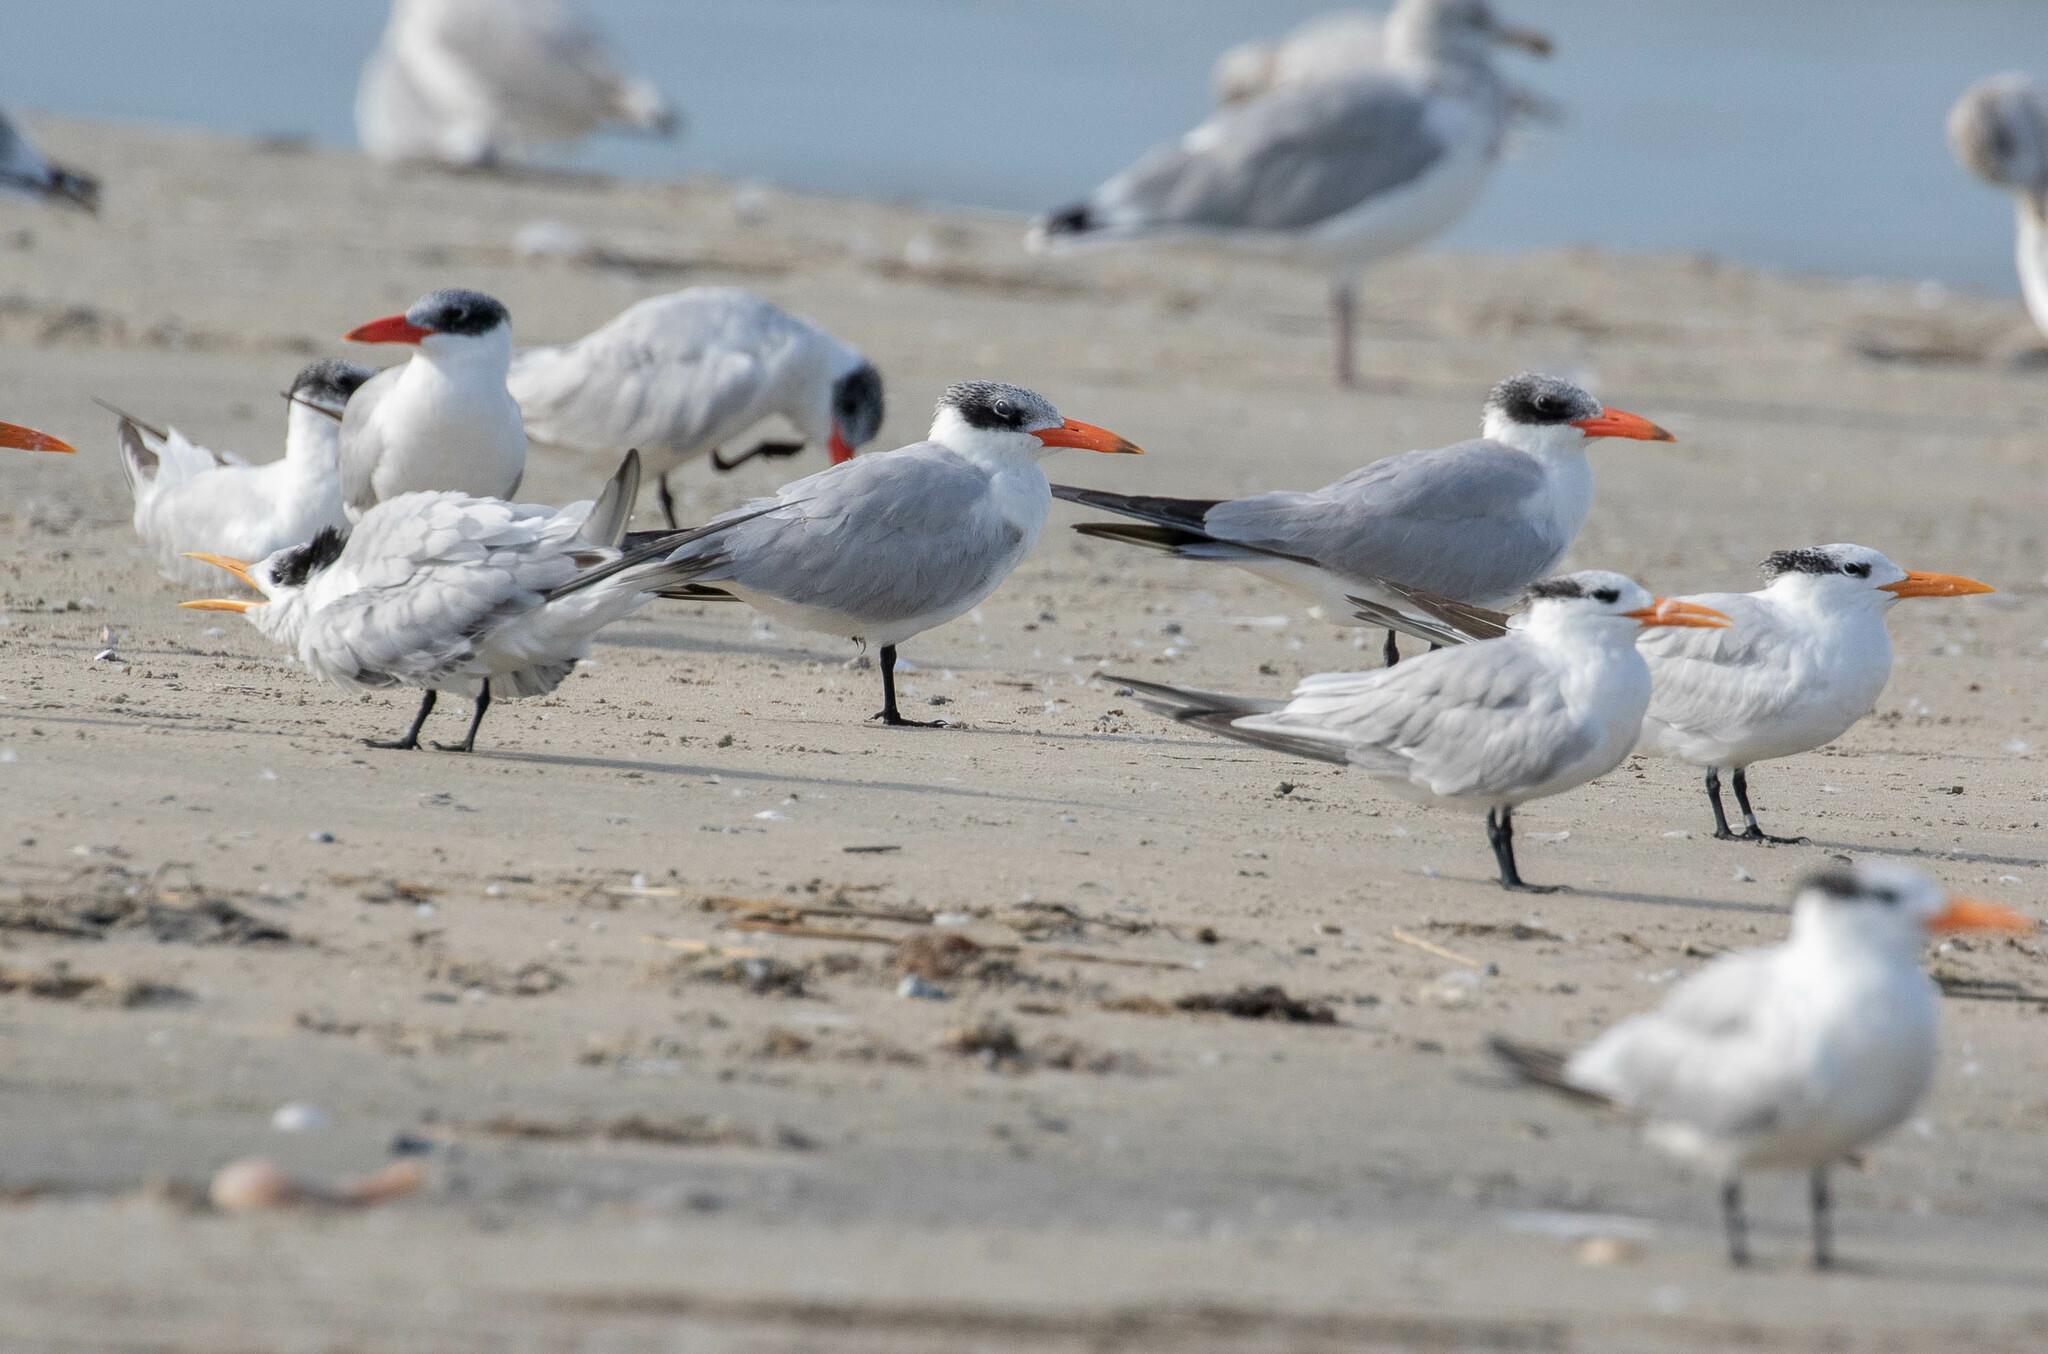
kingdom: Animalia
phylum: Chordata
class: Aves
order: Charadriiformes
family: Laridae
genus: Hydroprogne
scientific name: Hydroprogne caspia
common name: Caspian tern
